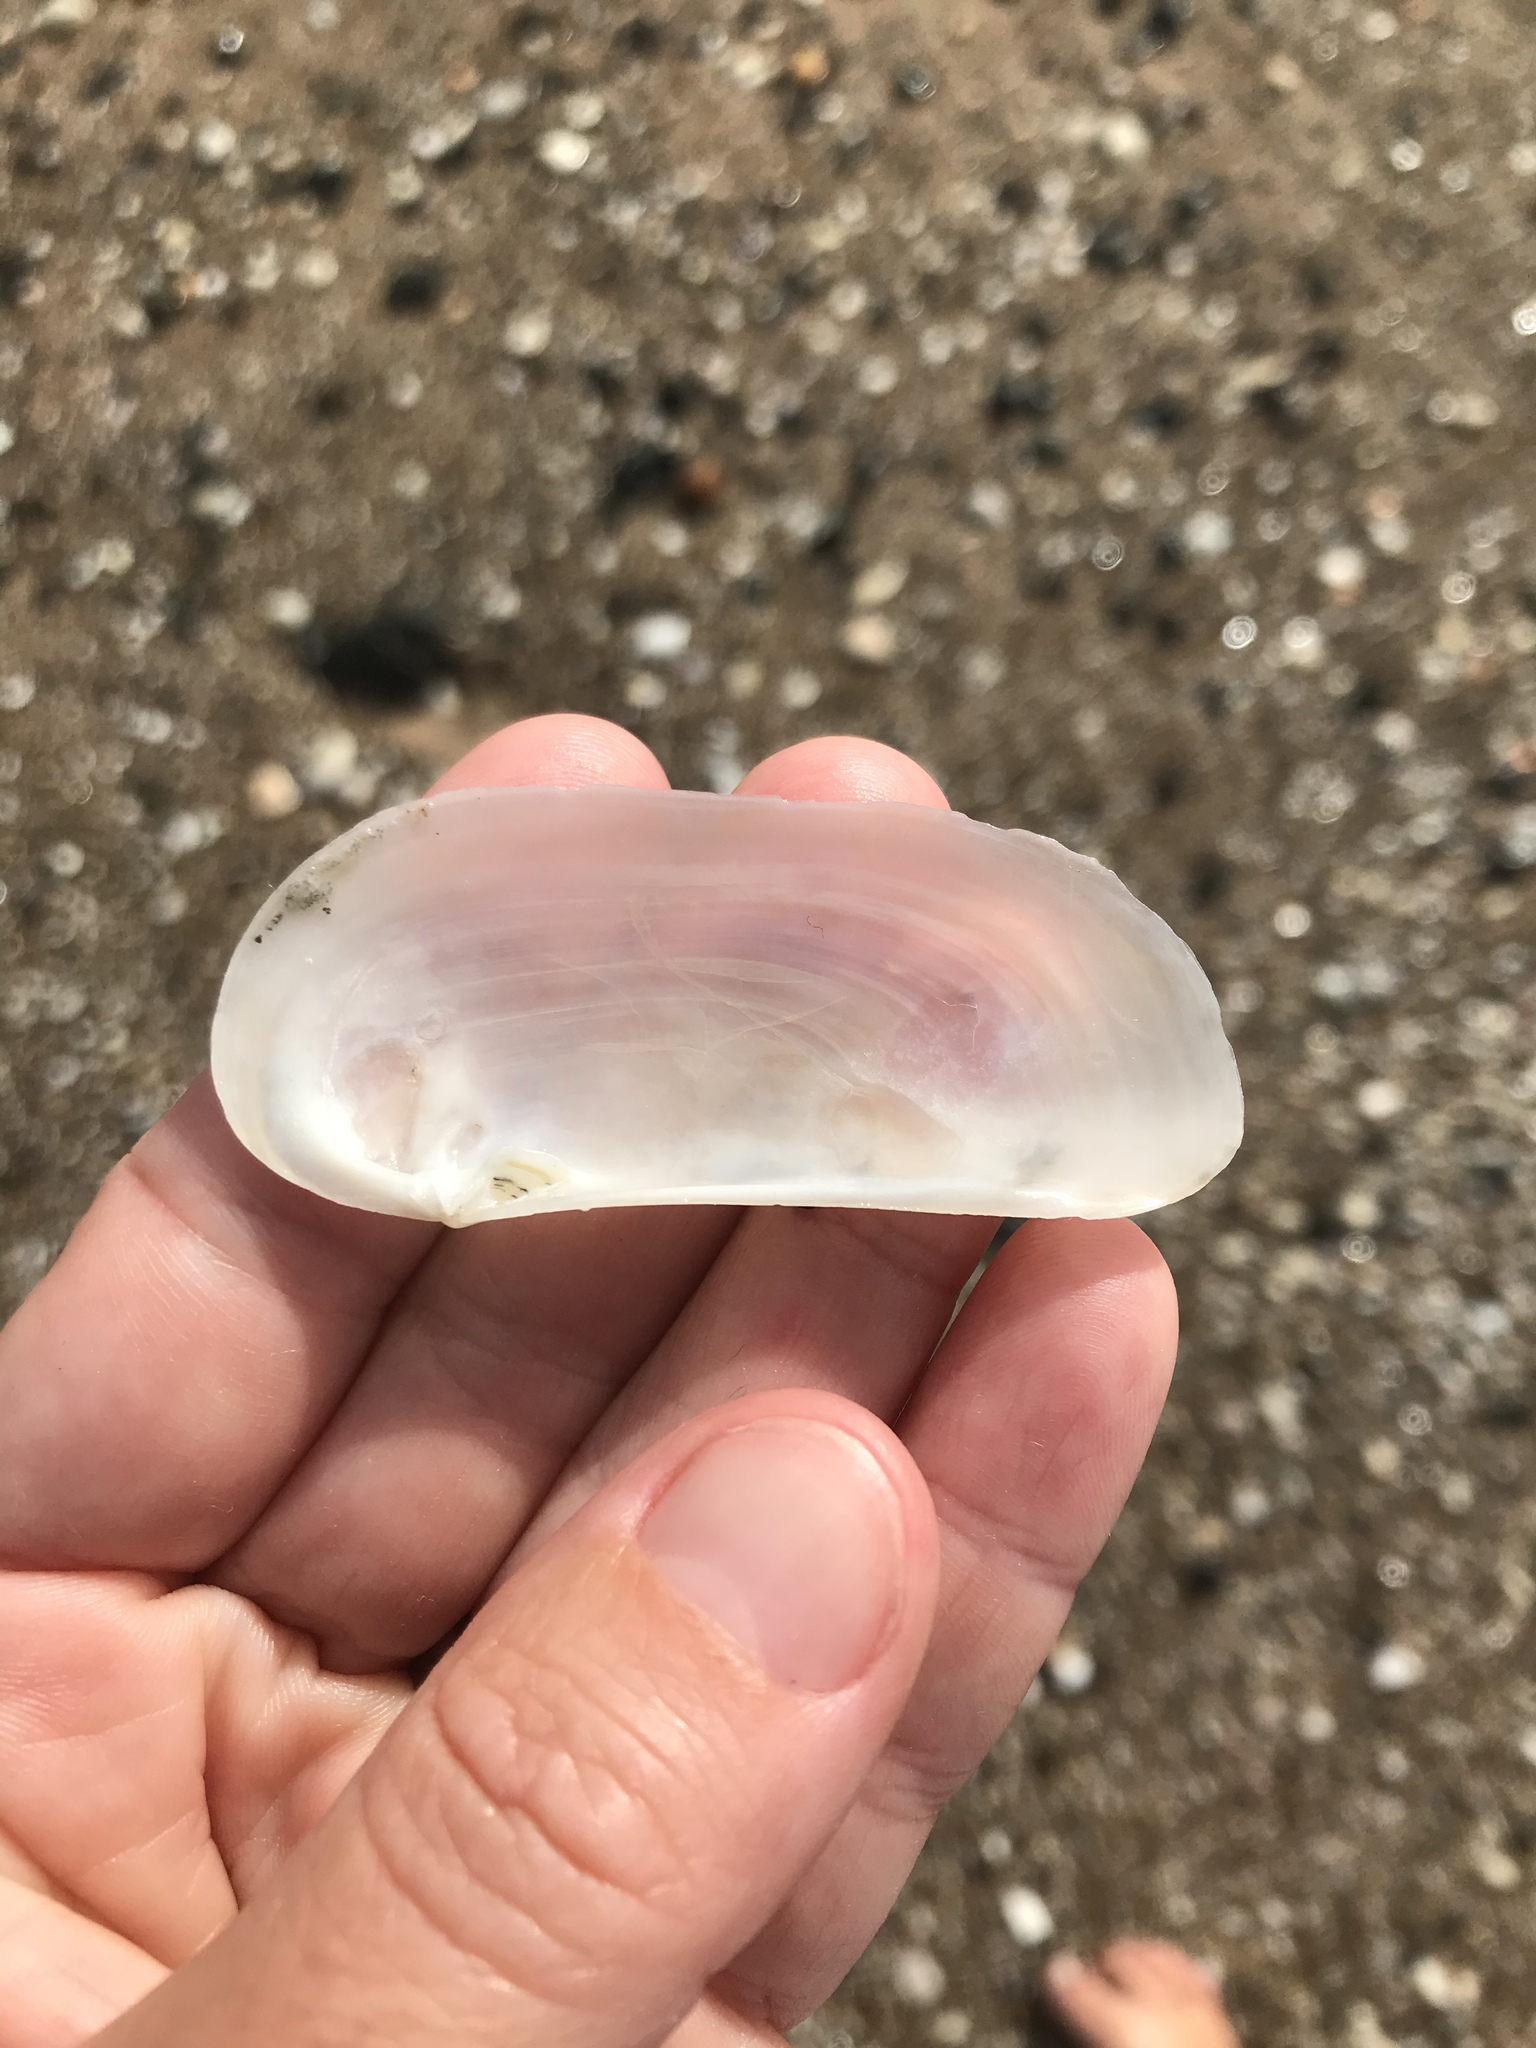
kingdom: Animalia
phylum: Mollusca
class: Bivalvia
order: Venerida
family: Mactridae
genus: Zenatia
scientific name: Zenatia acinaces
